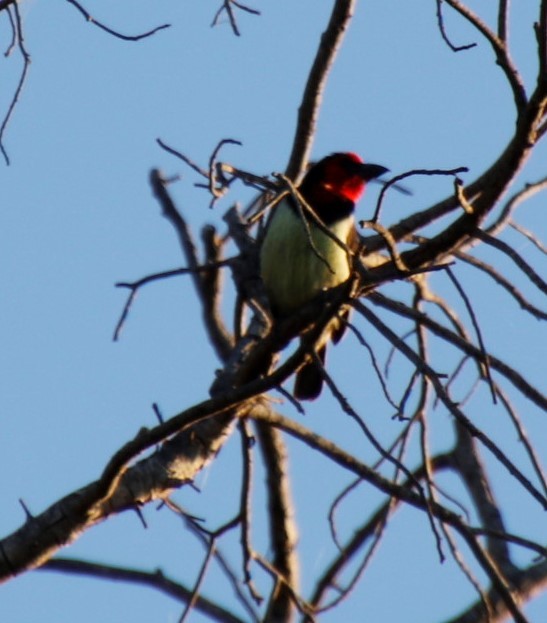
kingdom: Animalia
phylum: Chordata
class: Aves
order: Piciformes
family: Lybiidae
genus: Lybius
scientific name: Lybius torquatus
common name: Black-collared barbet
